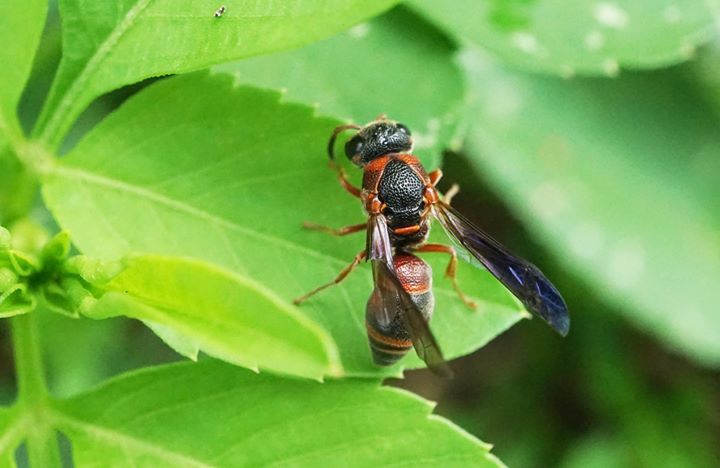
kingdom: Animalia
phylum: Arthropoda
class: Insecta
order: Hymenoptera
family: Eumenidae
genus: Rhynchalastor
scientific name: Rhynchalastor fundatiformis
